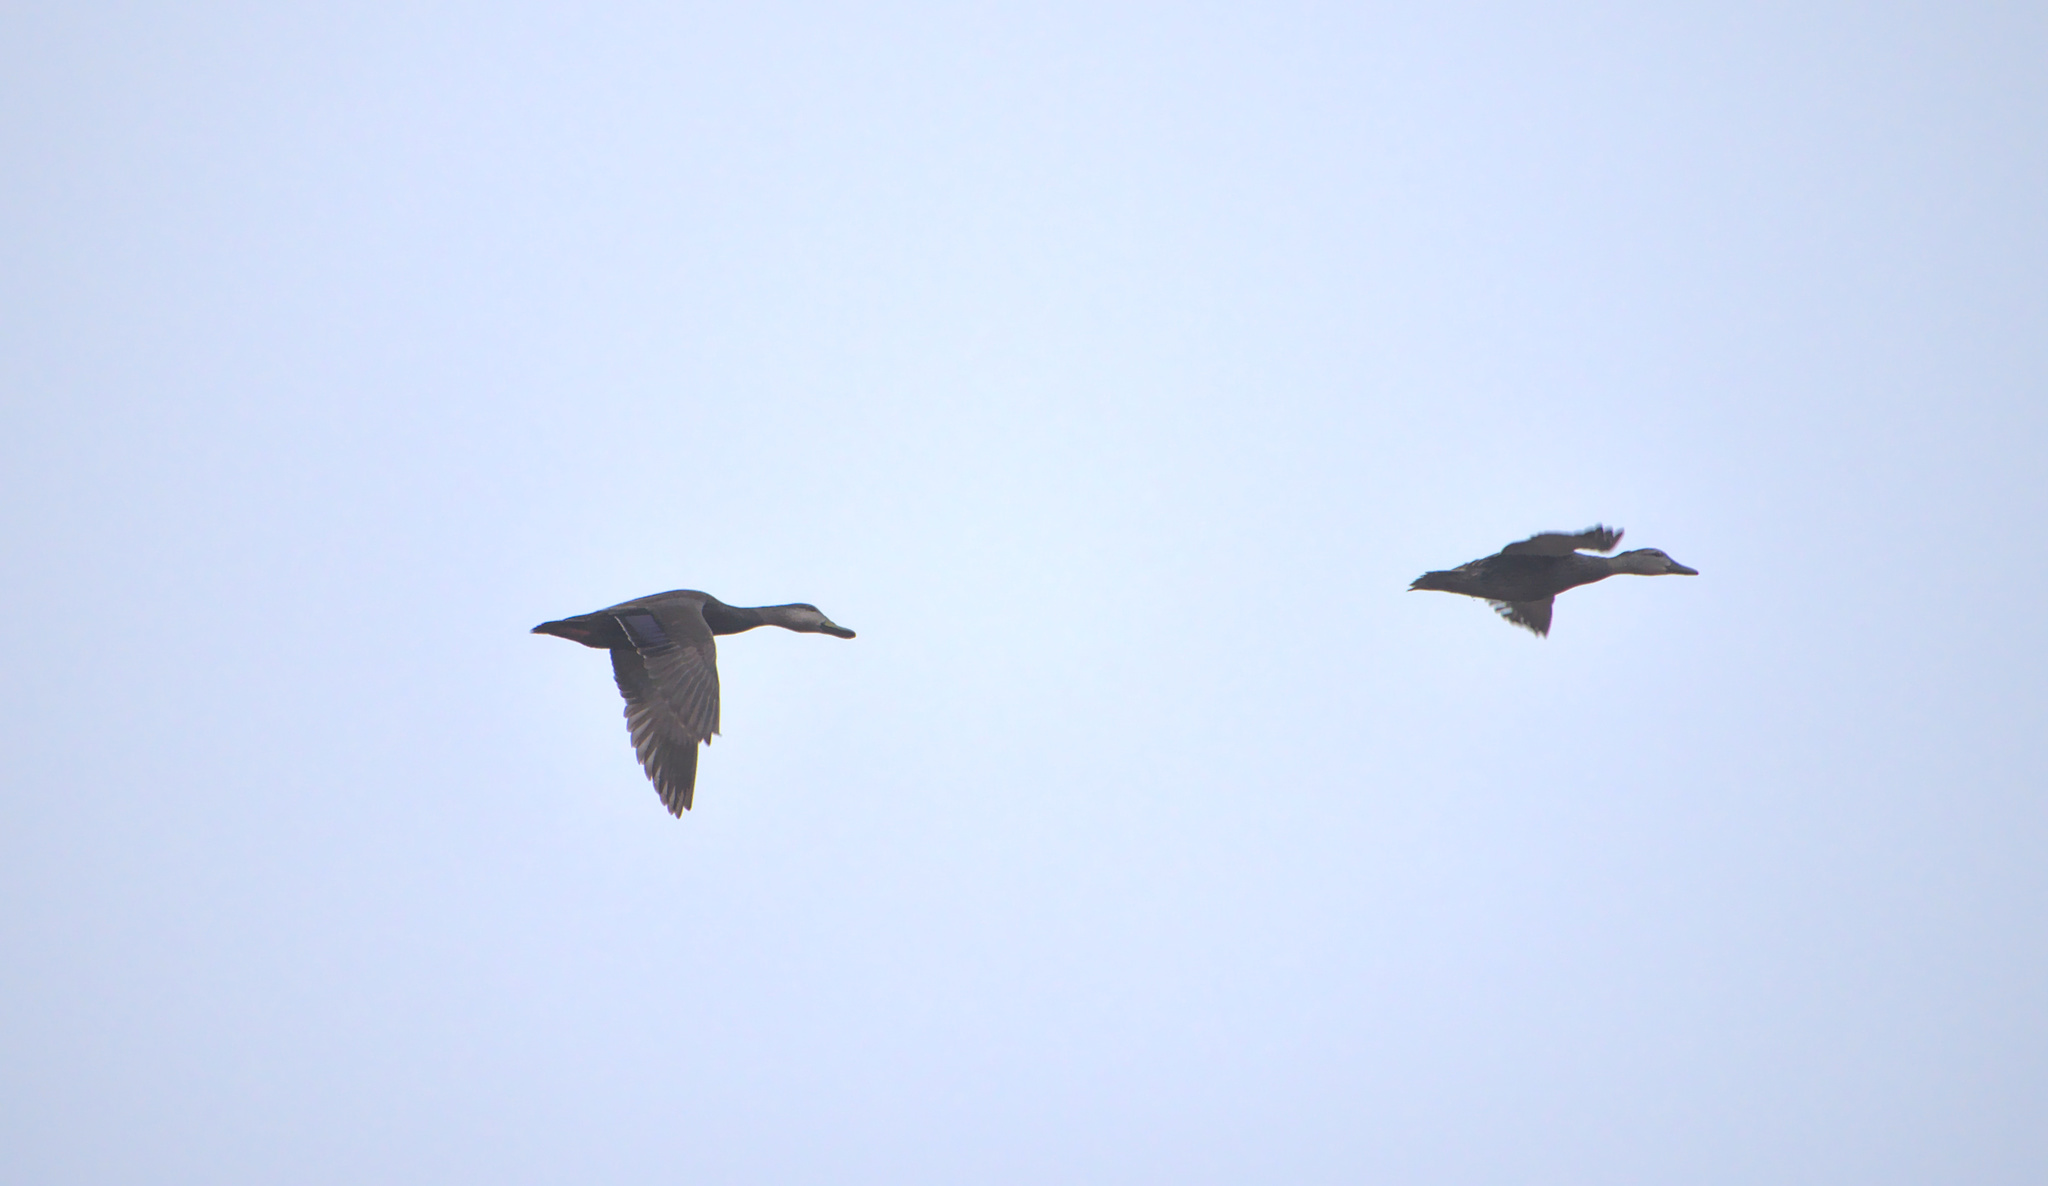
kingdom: Animalia
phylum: Chordata
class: Aves
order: Anseriformes
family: Anatidae
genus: Anas
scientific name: Anas rubripes
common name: American black duck
